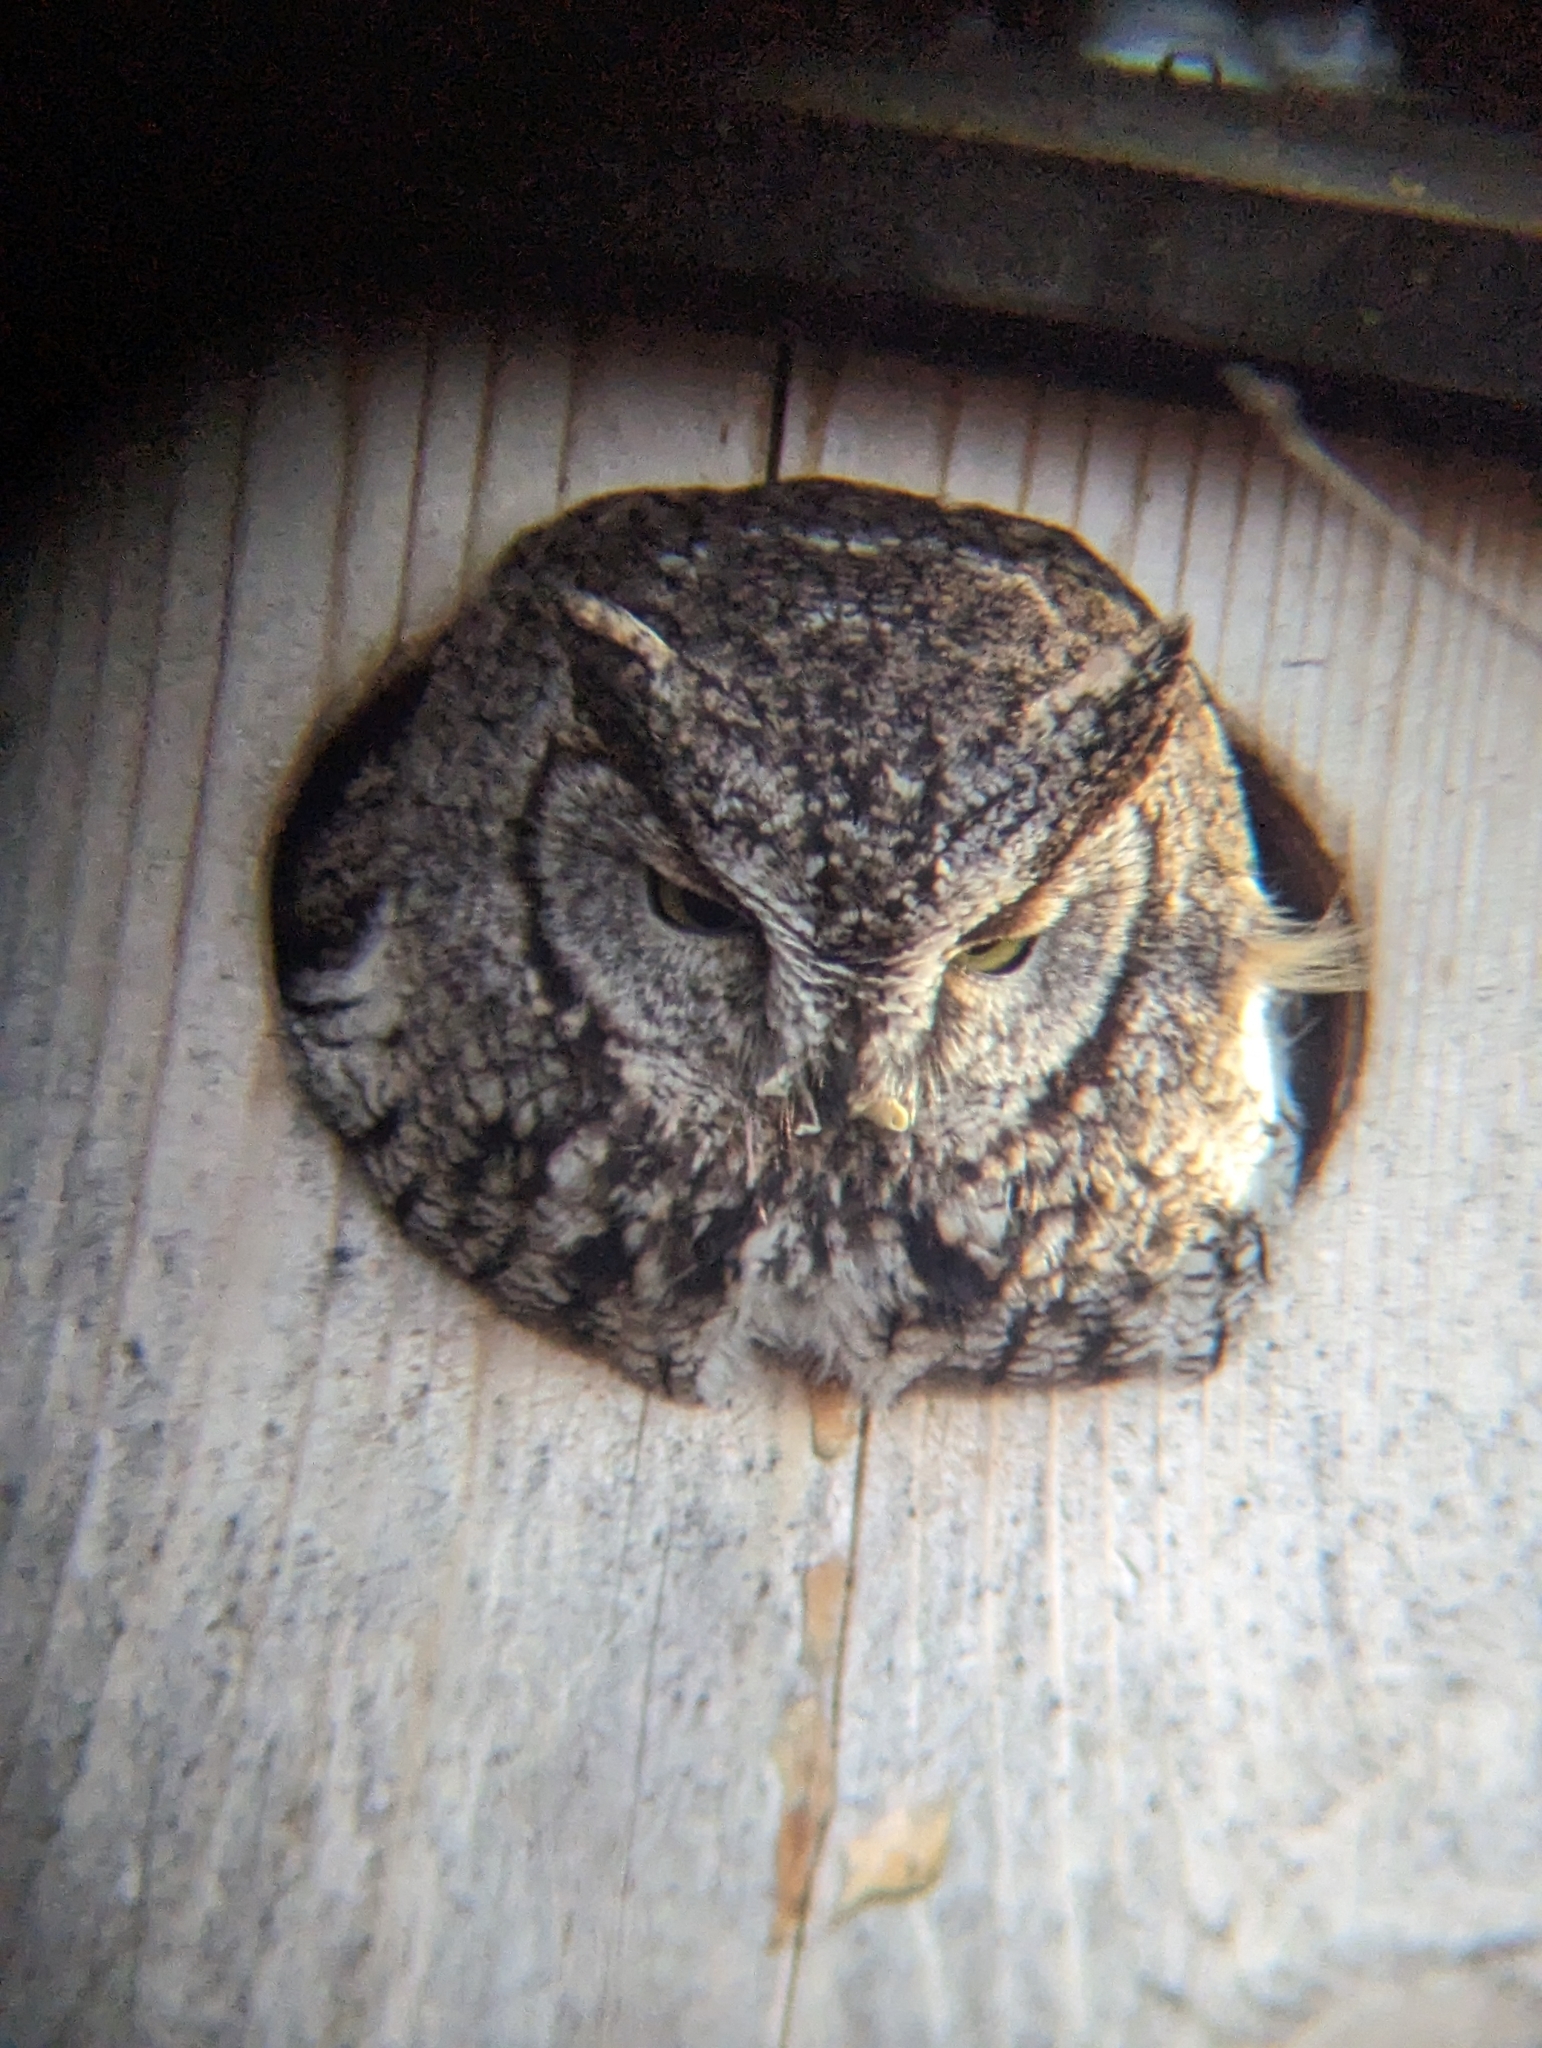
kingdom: Animalia
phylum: Chordata
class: Aves
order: Strigiformes
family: Strigidae
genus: Megascops
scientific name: Megascops kennicottii
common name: Western screech-owl
